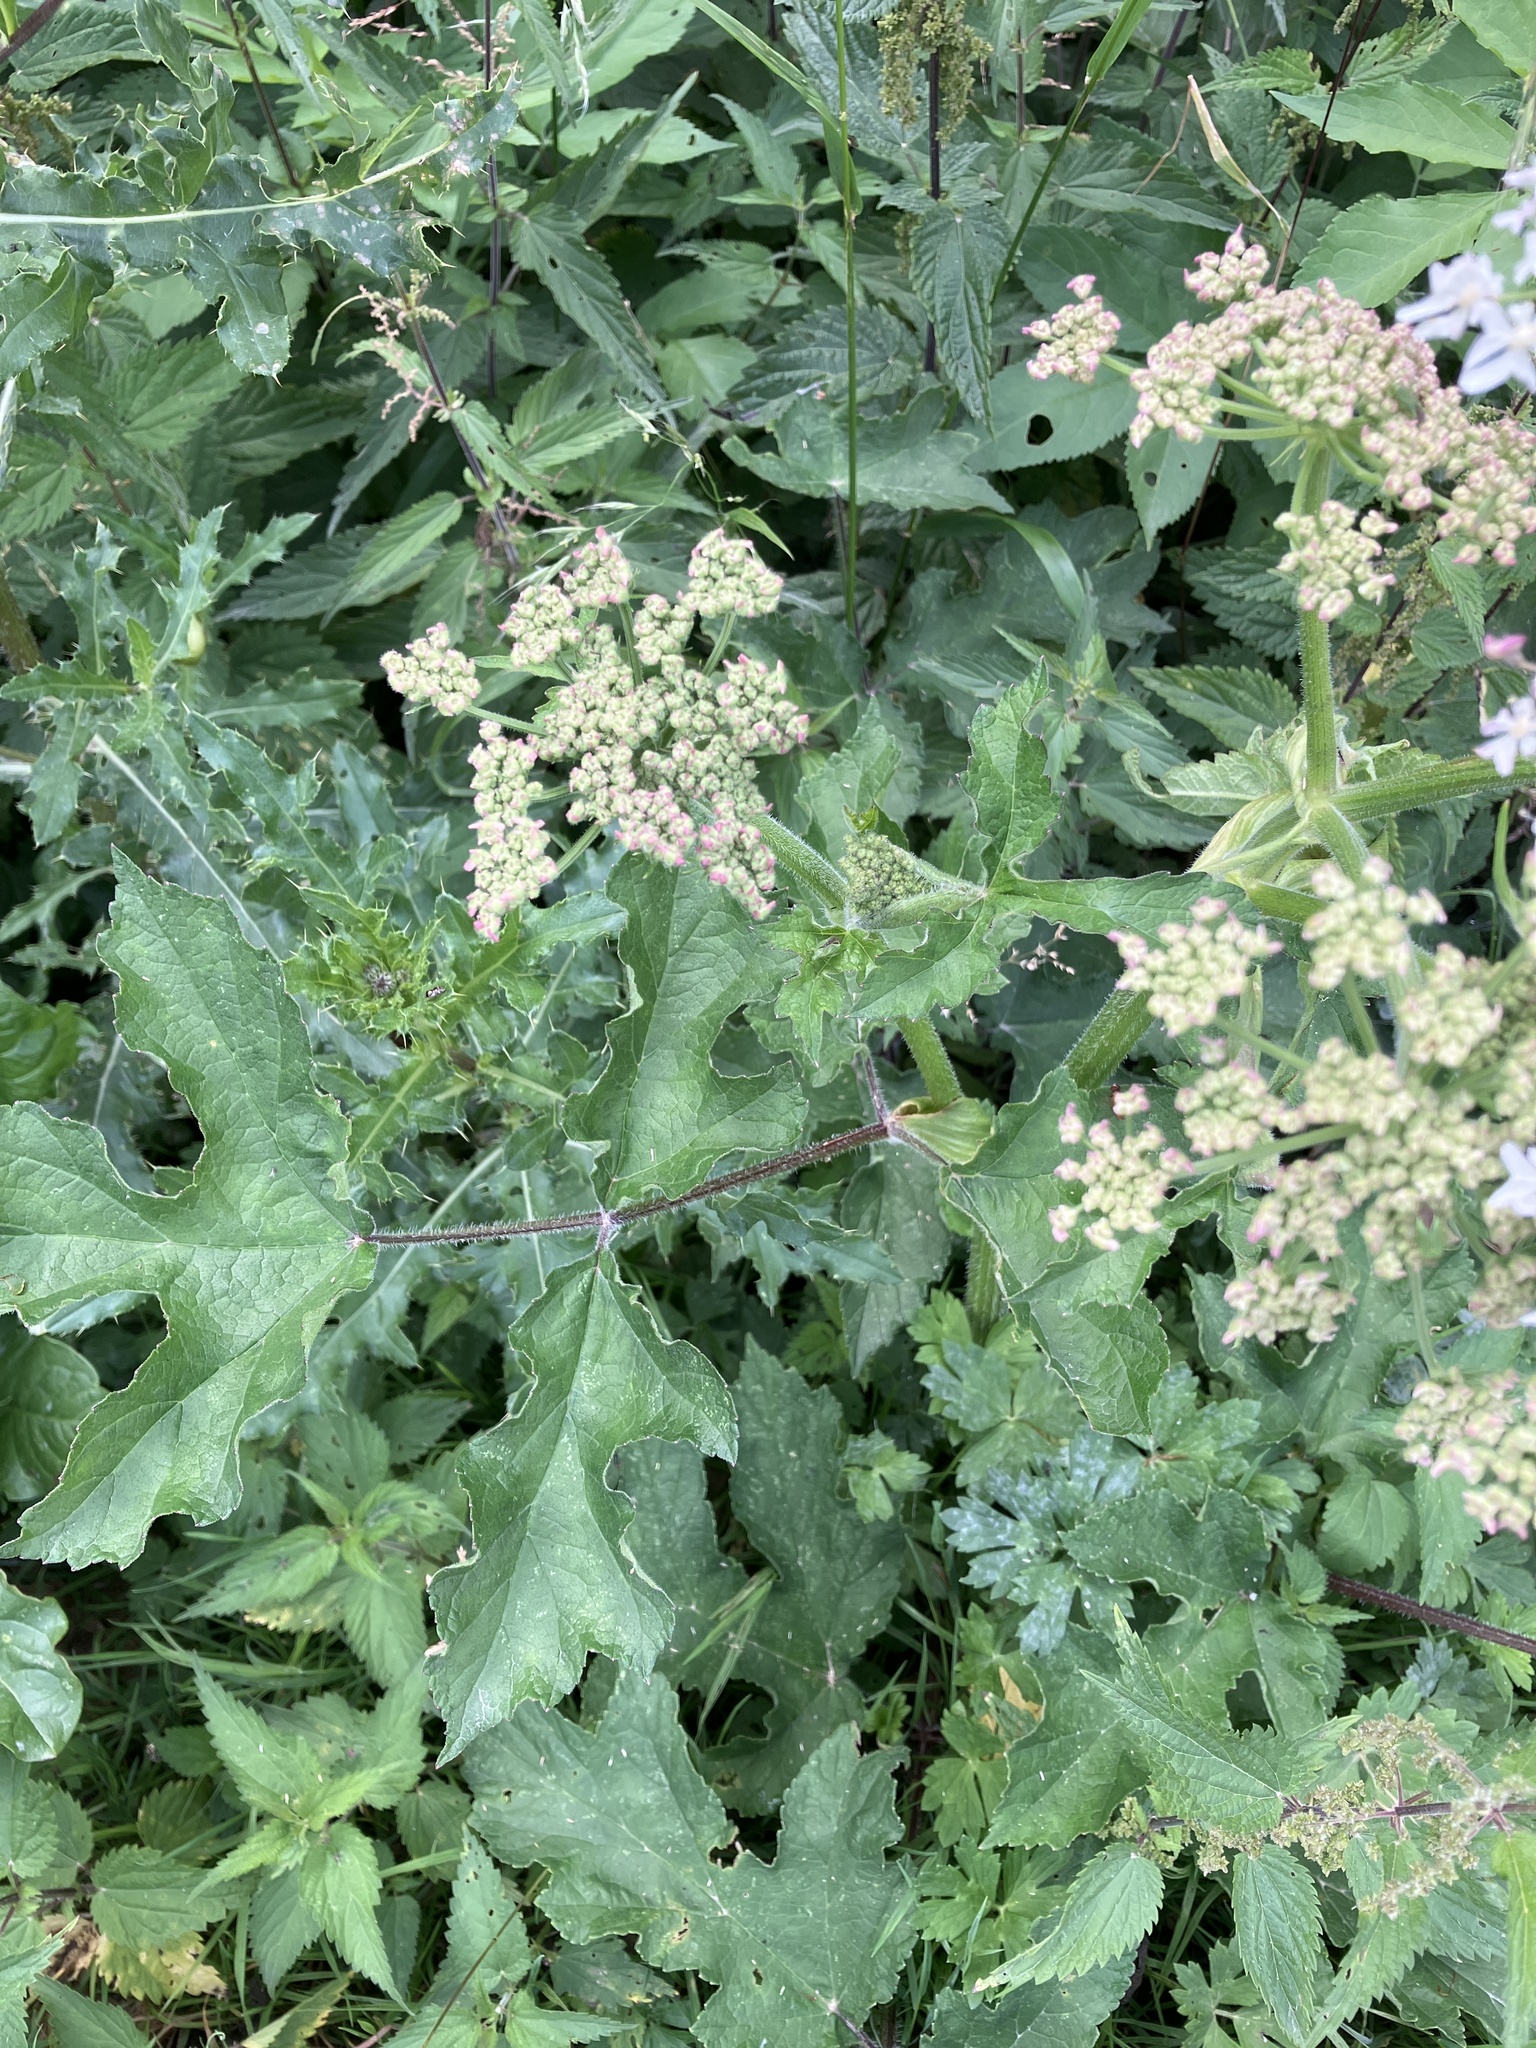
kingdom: Plantae
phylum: Tracheophyta
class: Magnoliopsida
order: Apiales
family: Apiaceae
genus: Heracleum
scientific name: Heracleum sphondylium
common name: Hogweed
